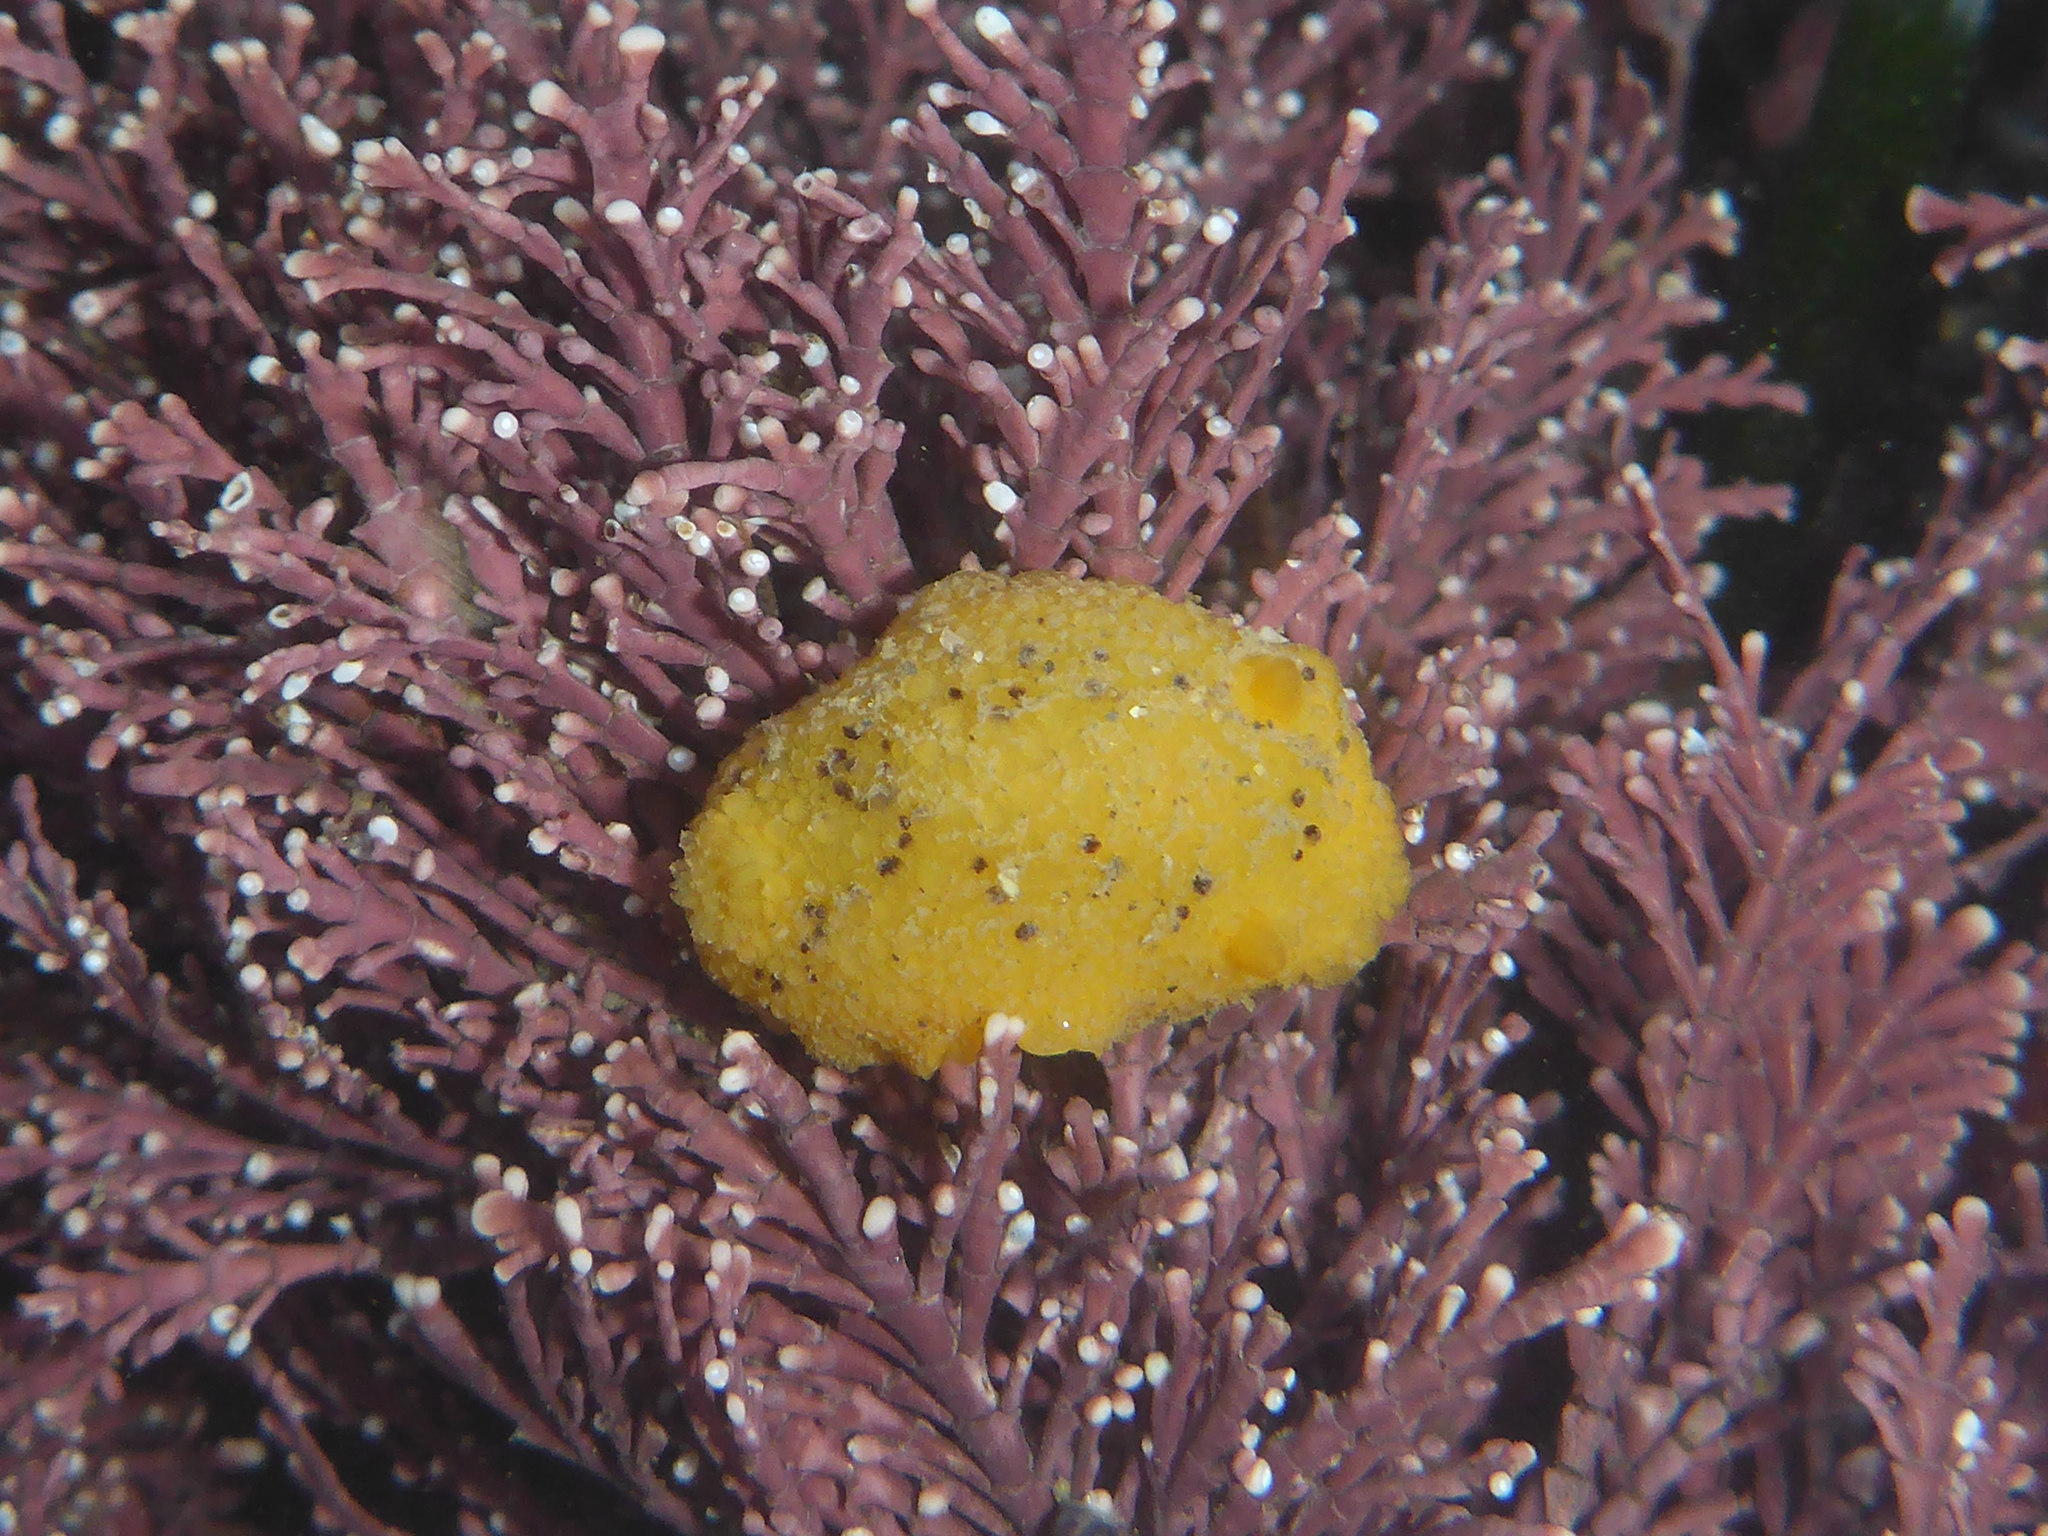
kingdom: Animalia
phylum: Mollusca
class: Gastropoda
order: Nudibranchia
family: Dorididae
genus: Doris
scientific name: Doris montereyensis
